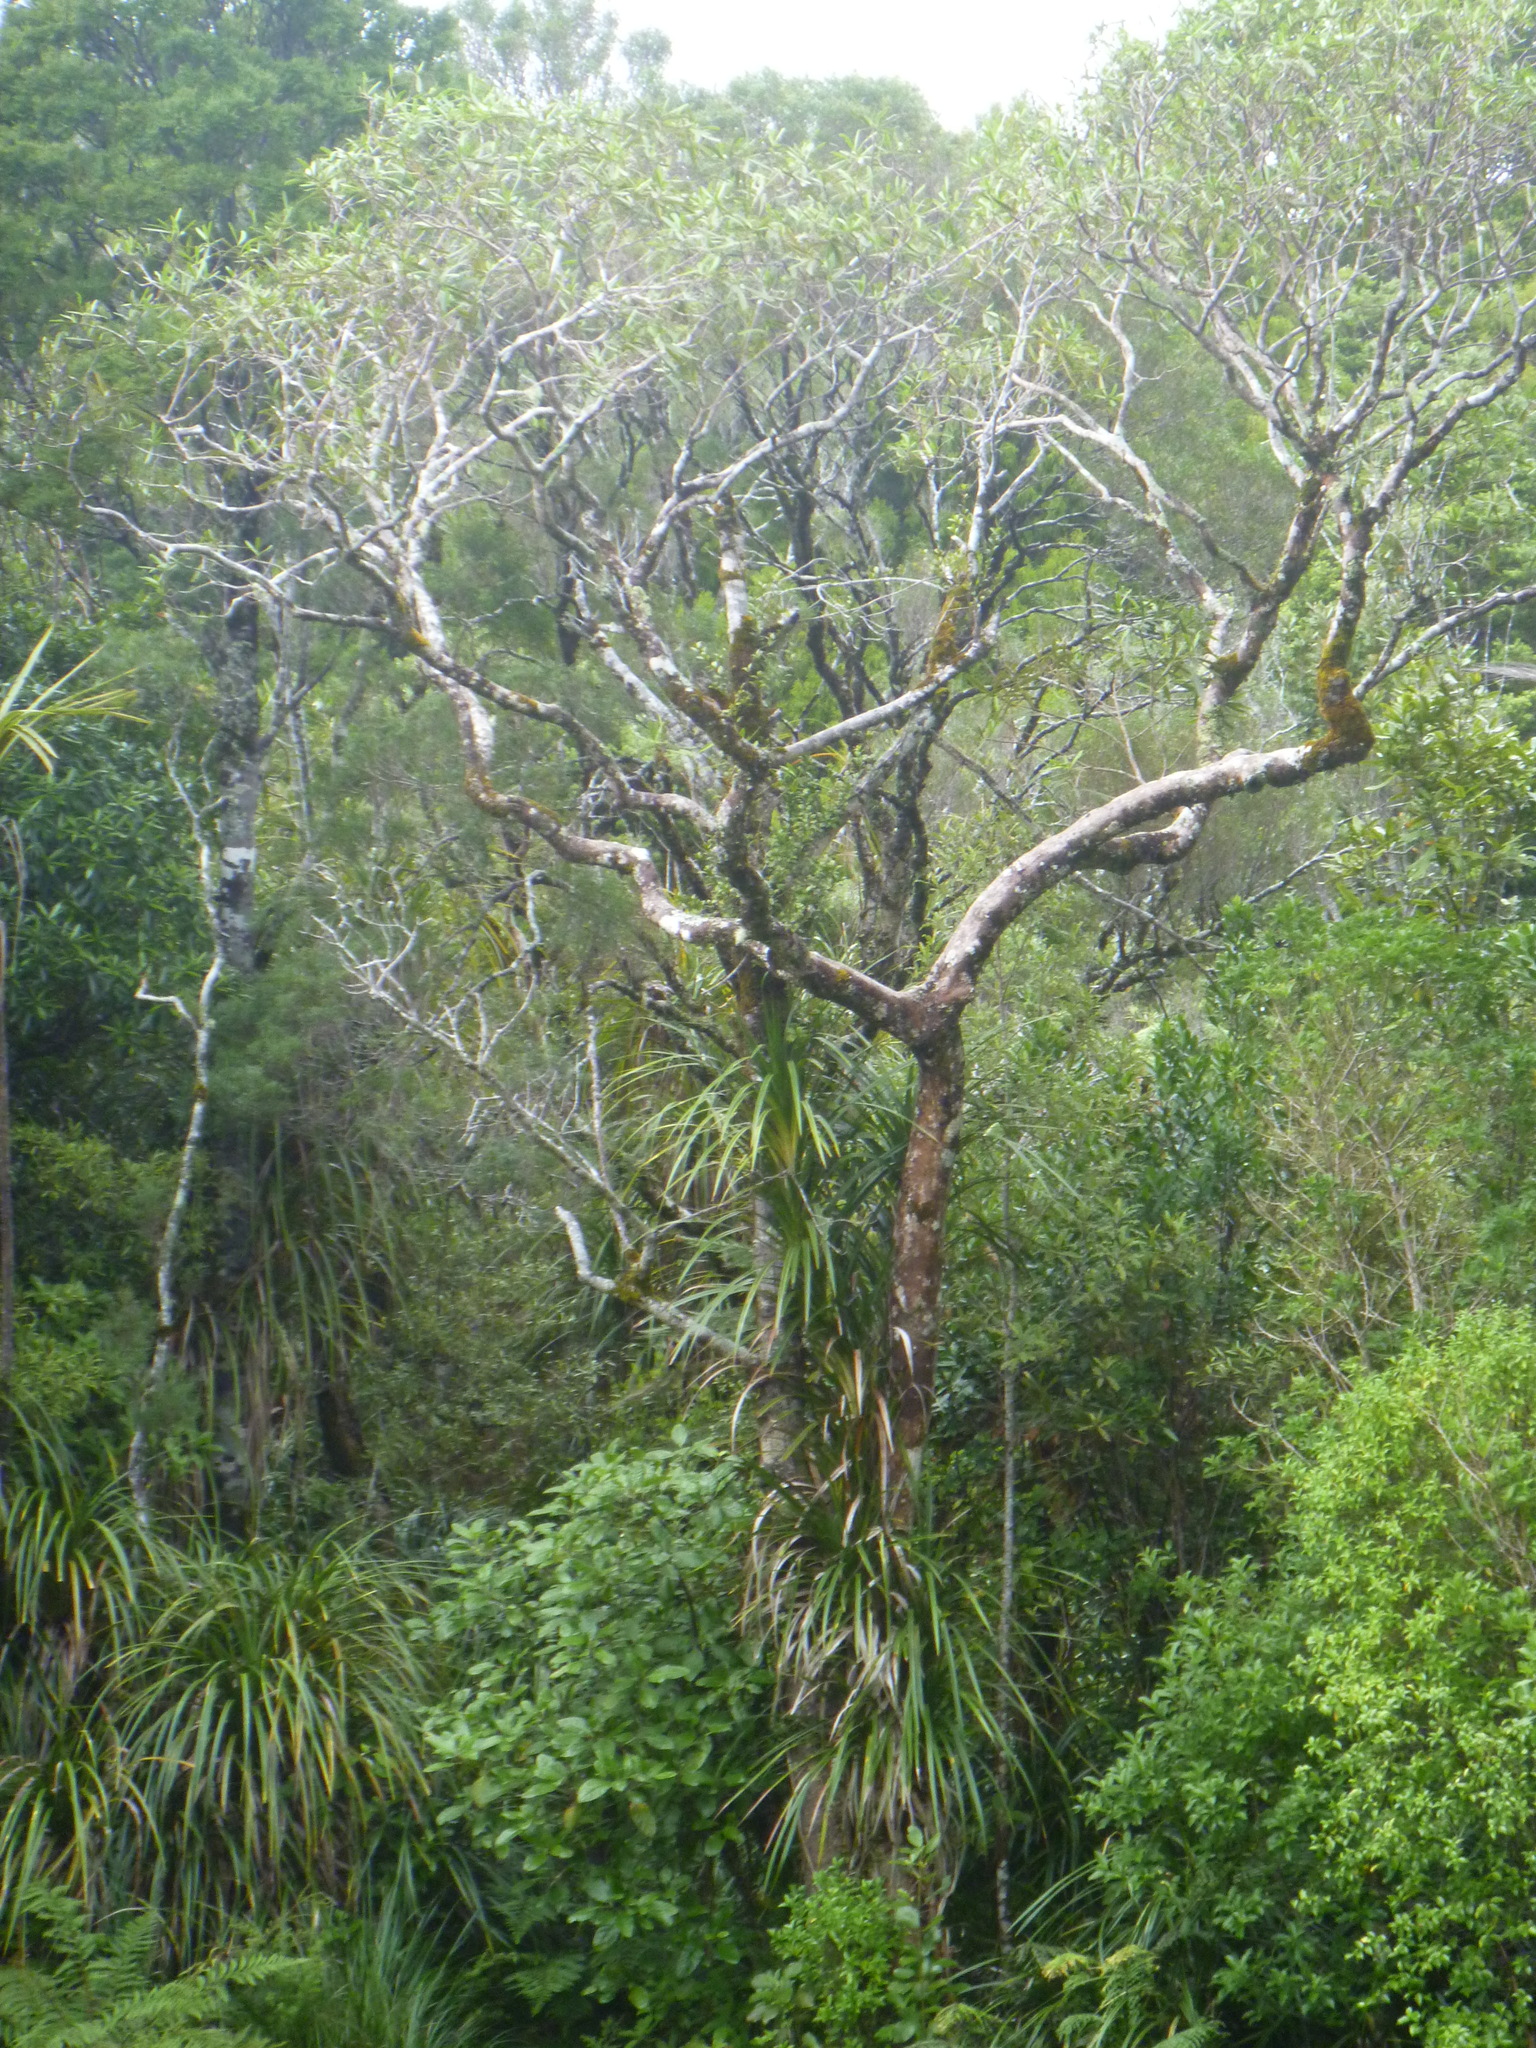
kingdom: Plantae
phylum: Tracheophyta
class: Magnoliopsida
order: Apiales
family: Araliaceae
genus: Pseudopanax
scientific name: Pseudopanax crassifolius
